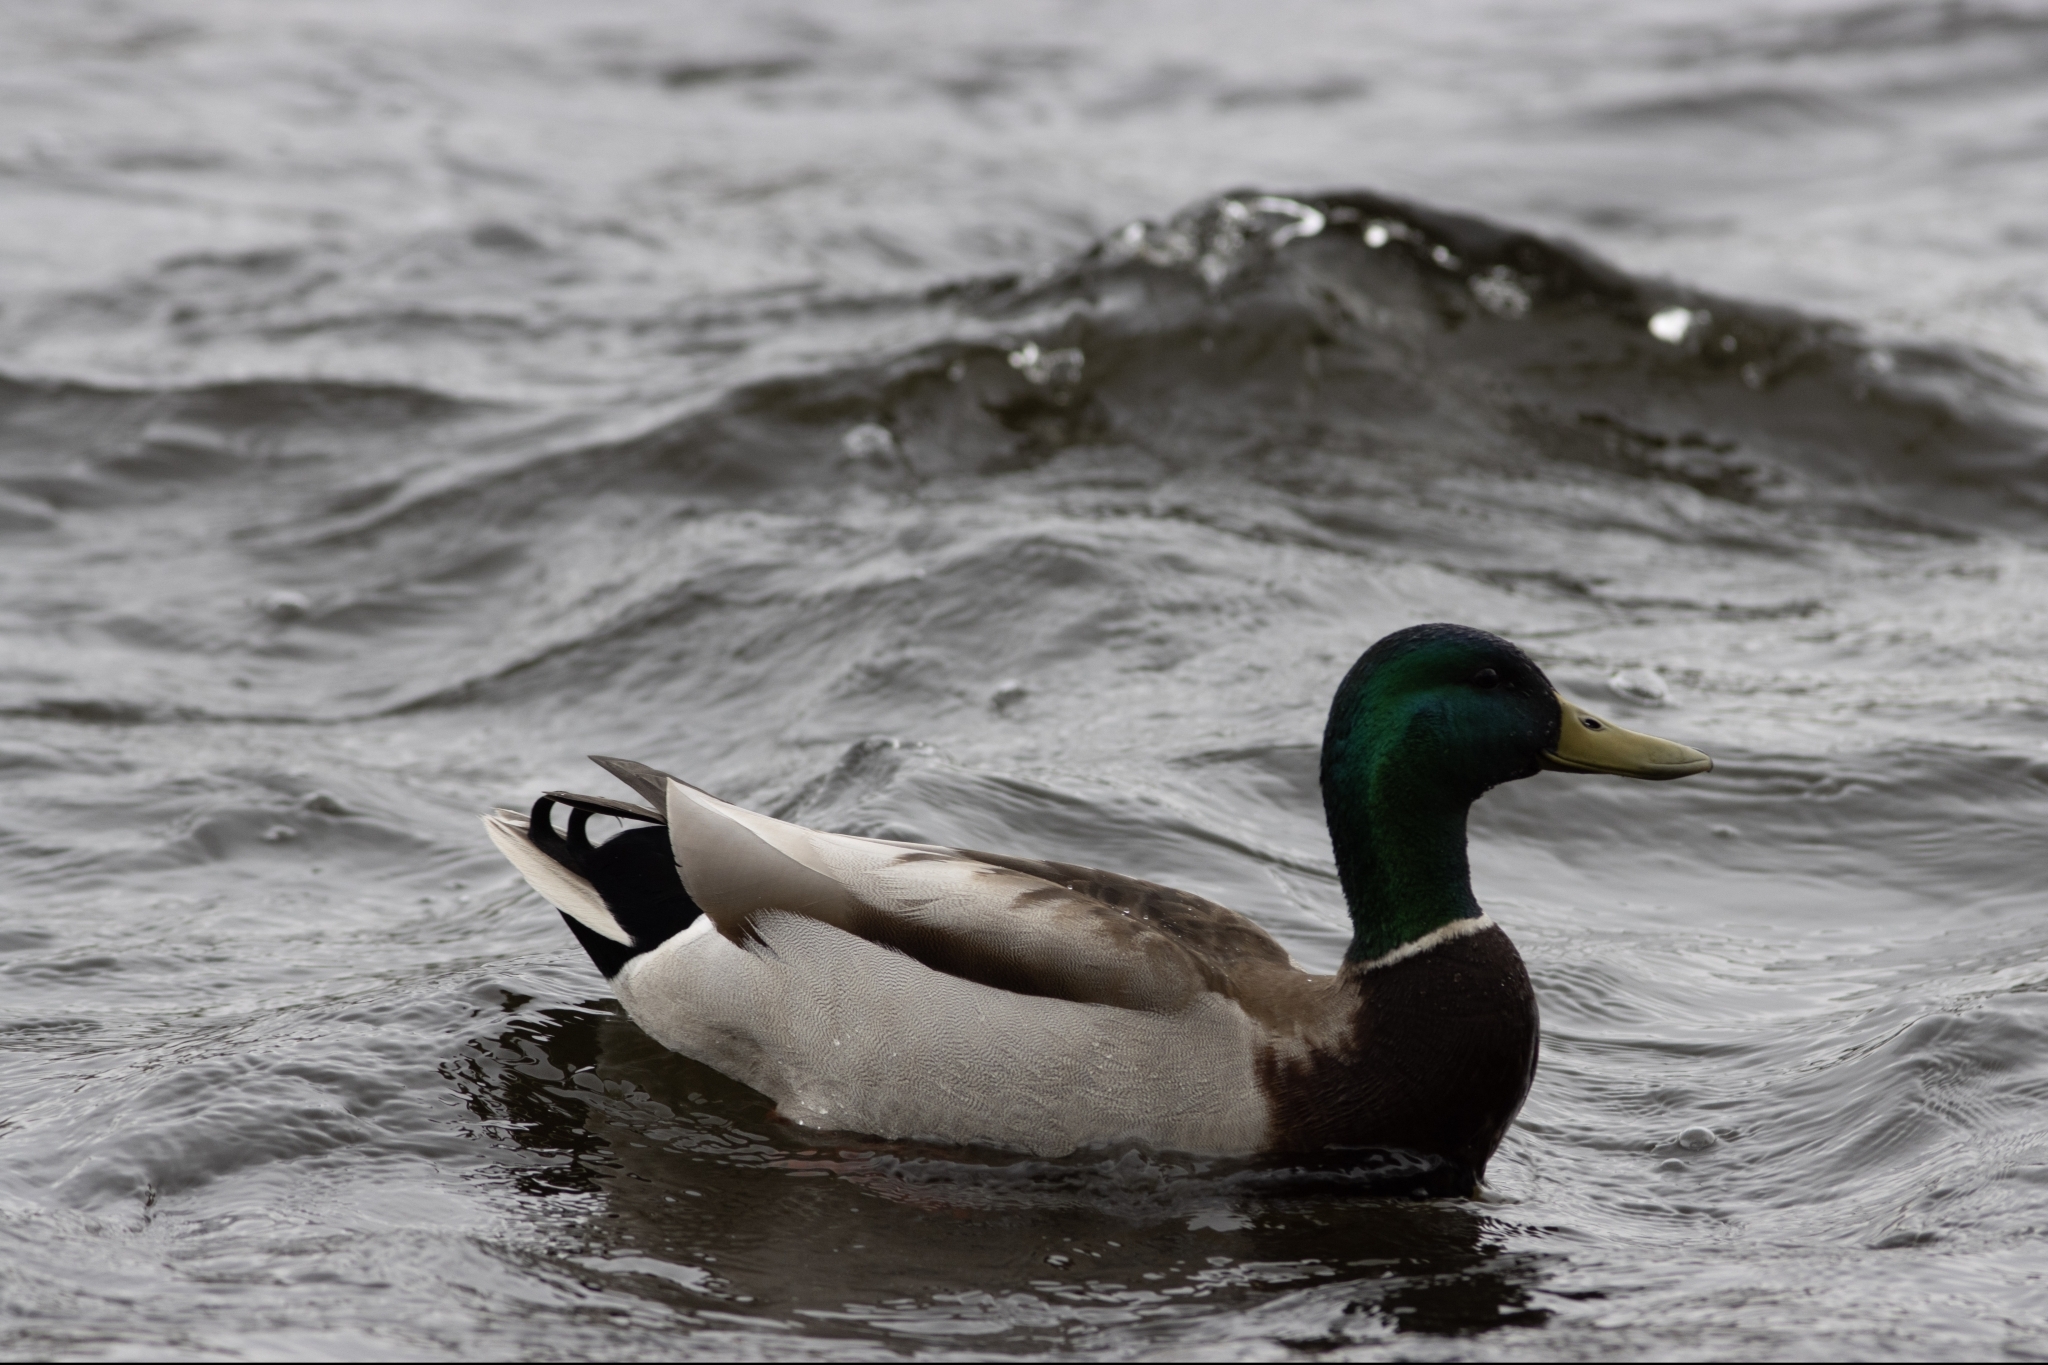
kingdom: Animalia
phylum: Chordata
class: Aves
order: Anseriformes
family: Anatidae
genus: Anas
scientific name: Anas platyrhynchos
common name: Mallard
